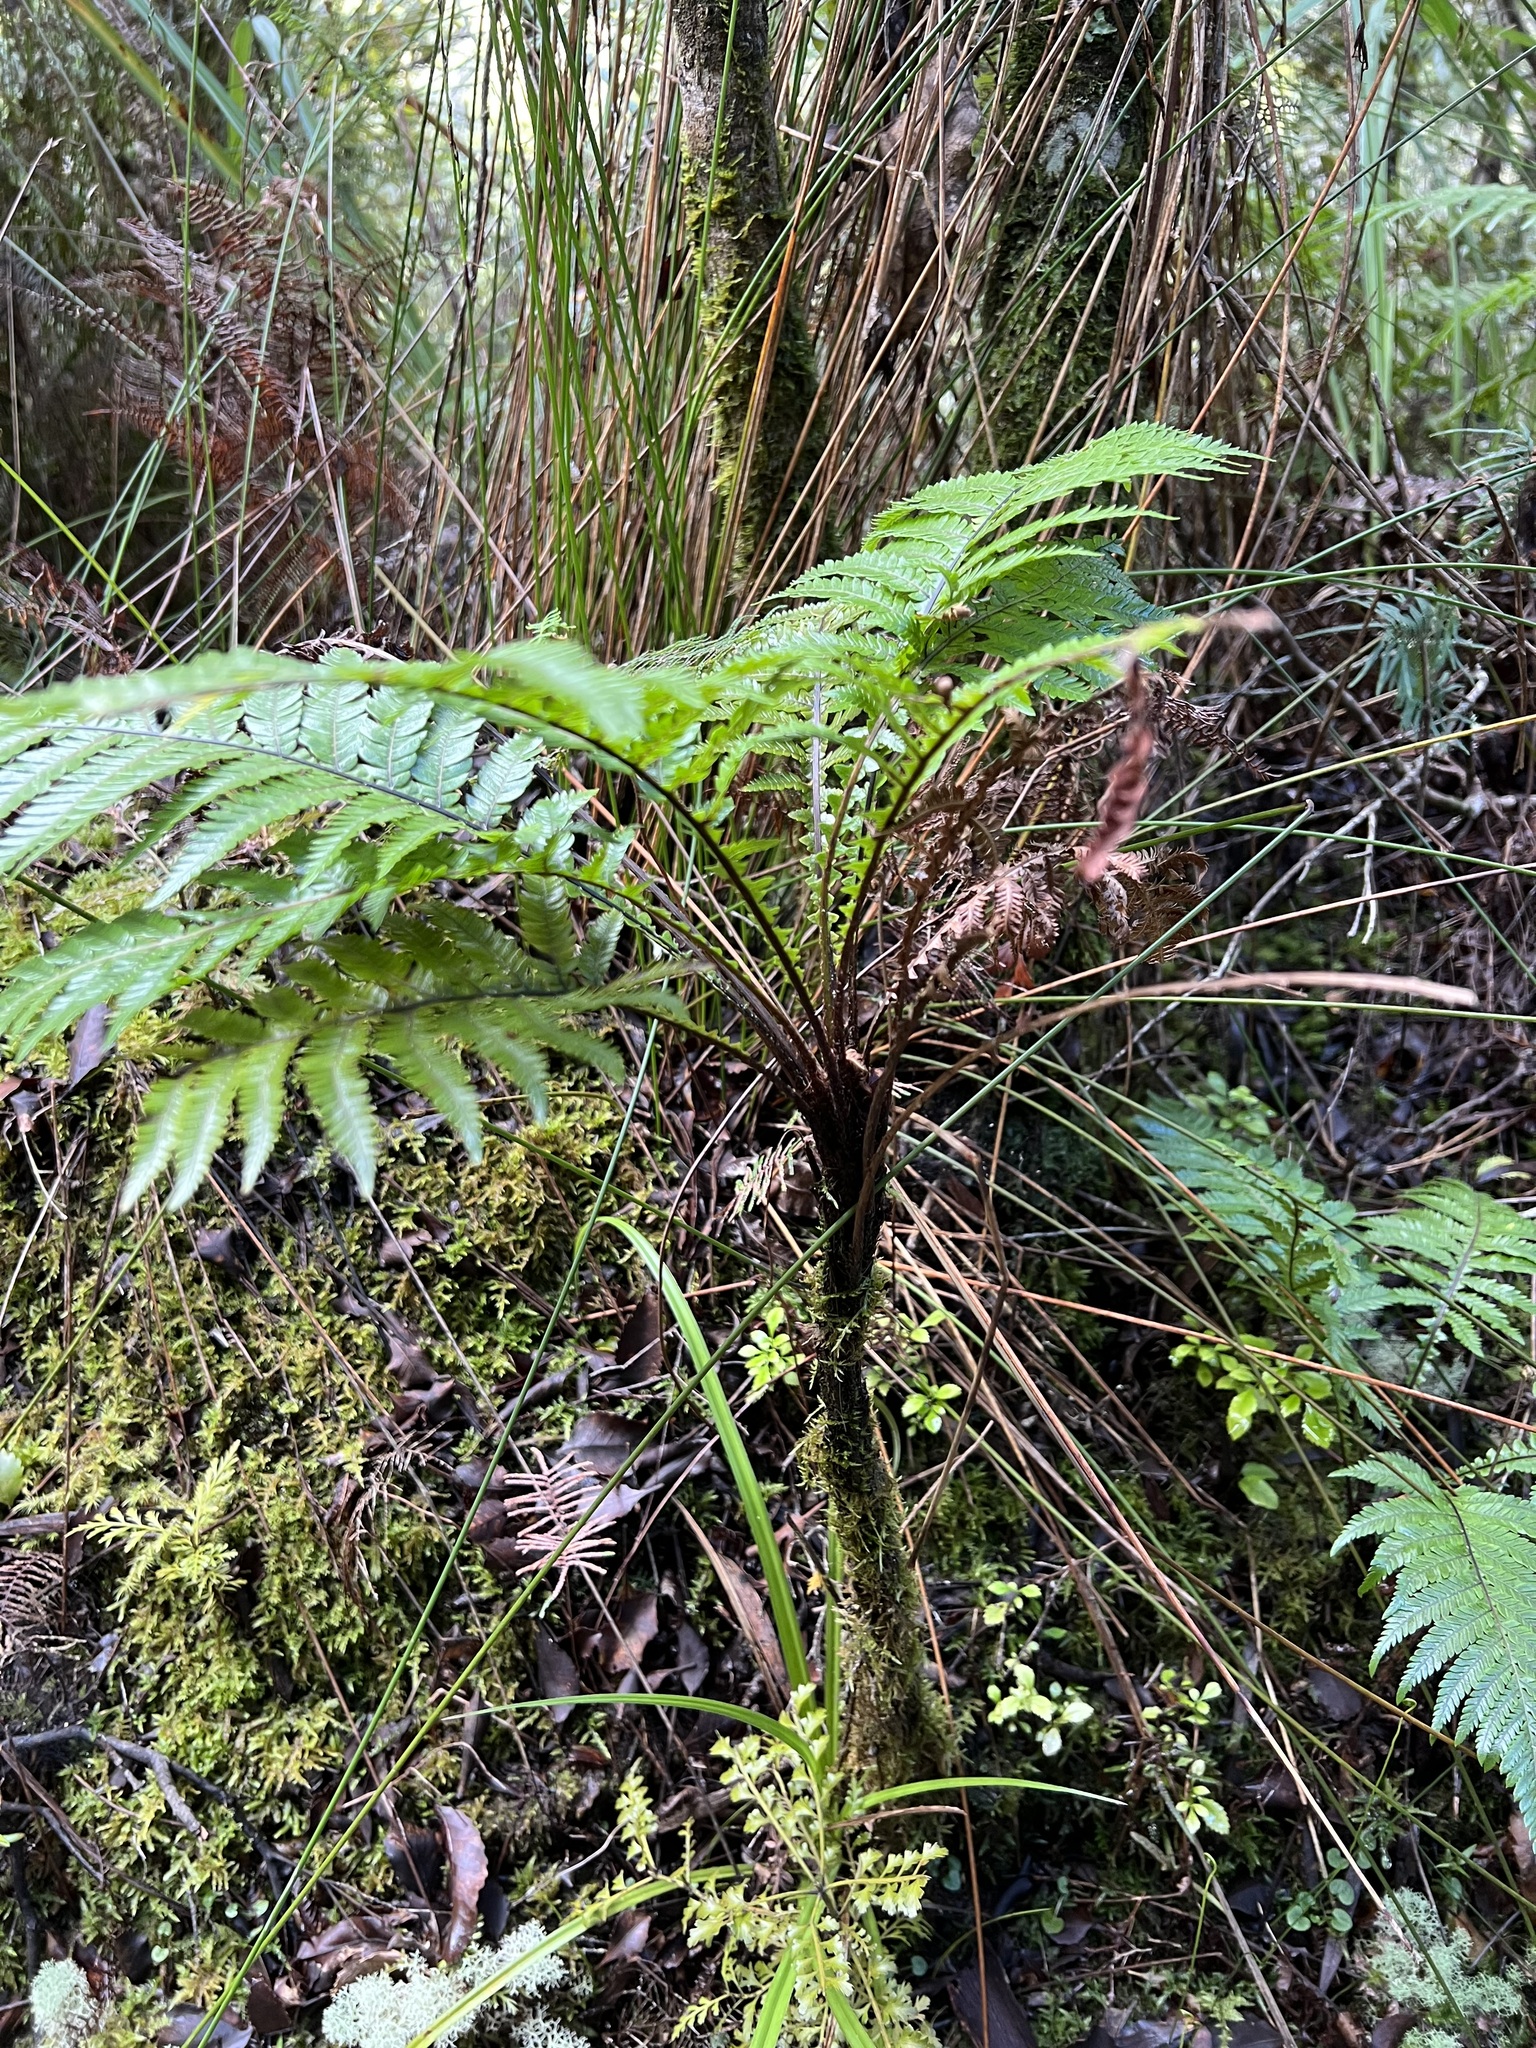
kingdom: Plantae
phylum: Tracheophyta
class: Polypodiopsida
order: Polypodiales
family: Blechnaceae
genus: Diploblechnum
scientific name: Diploblechnum fraseri
